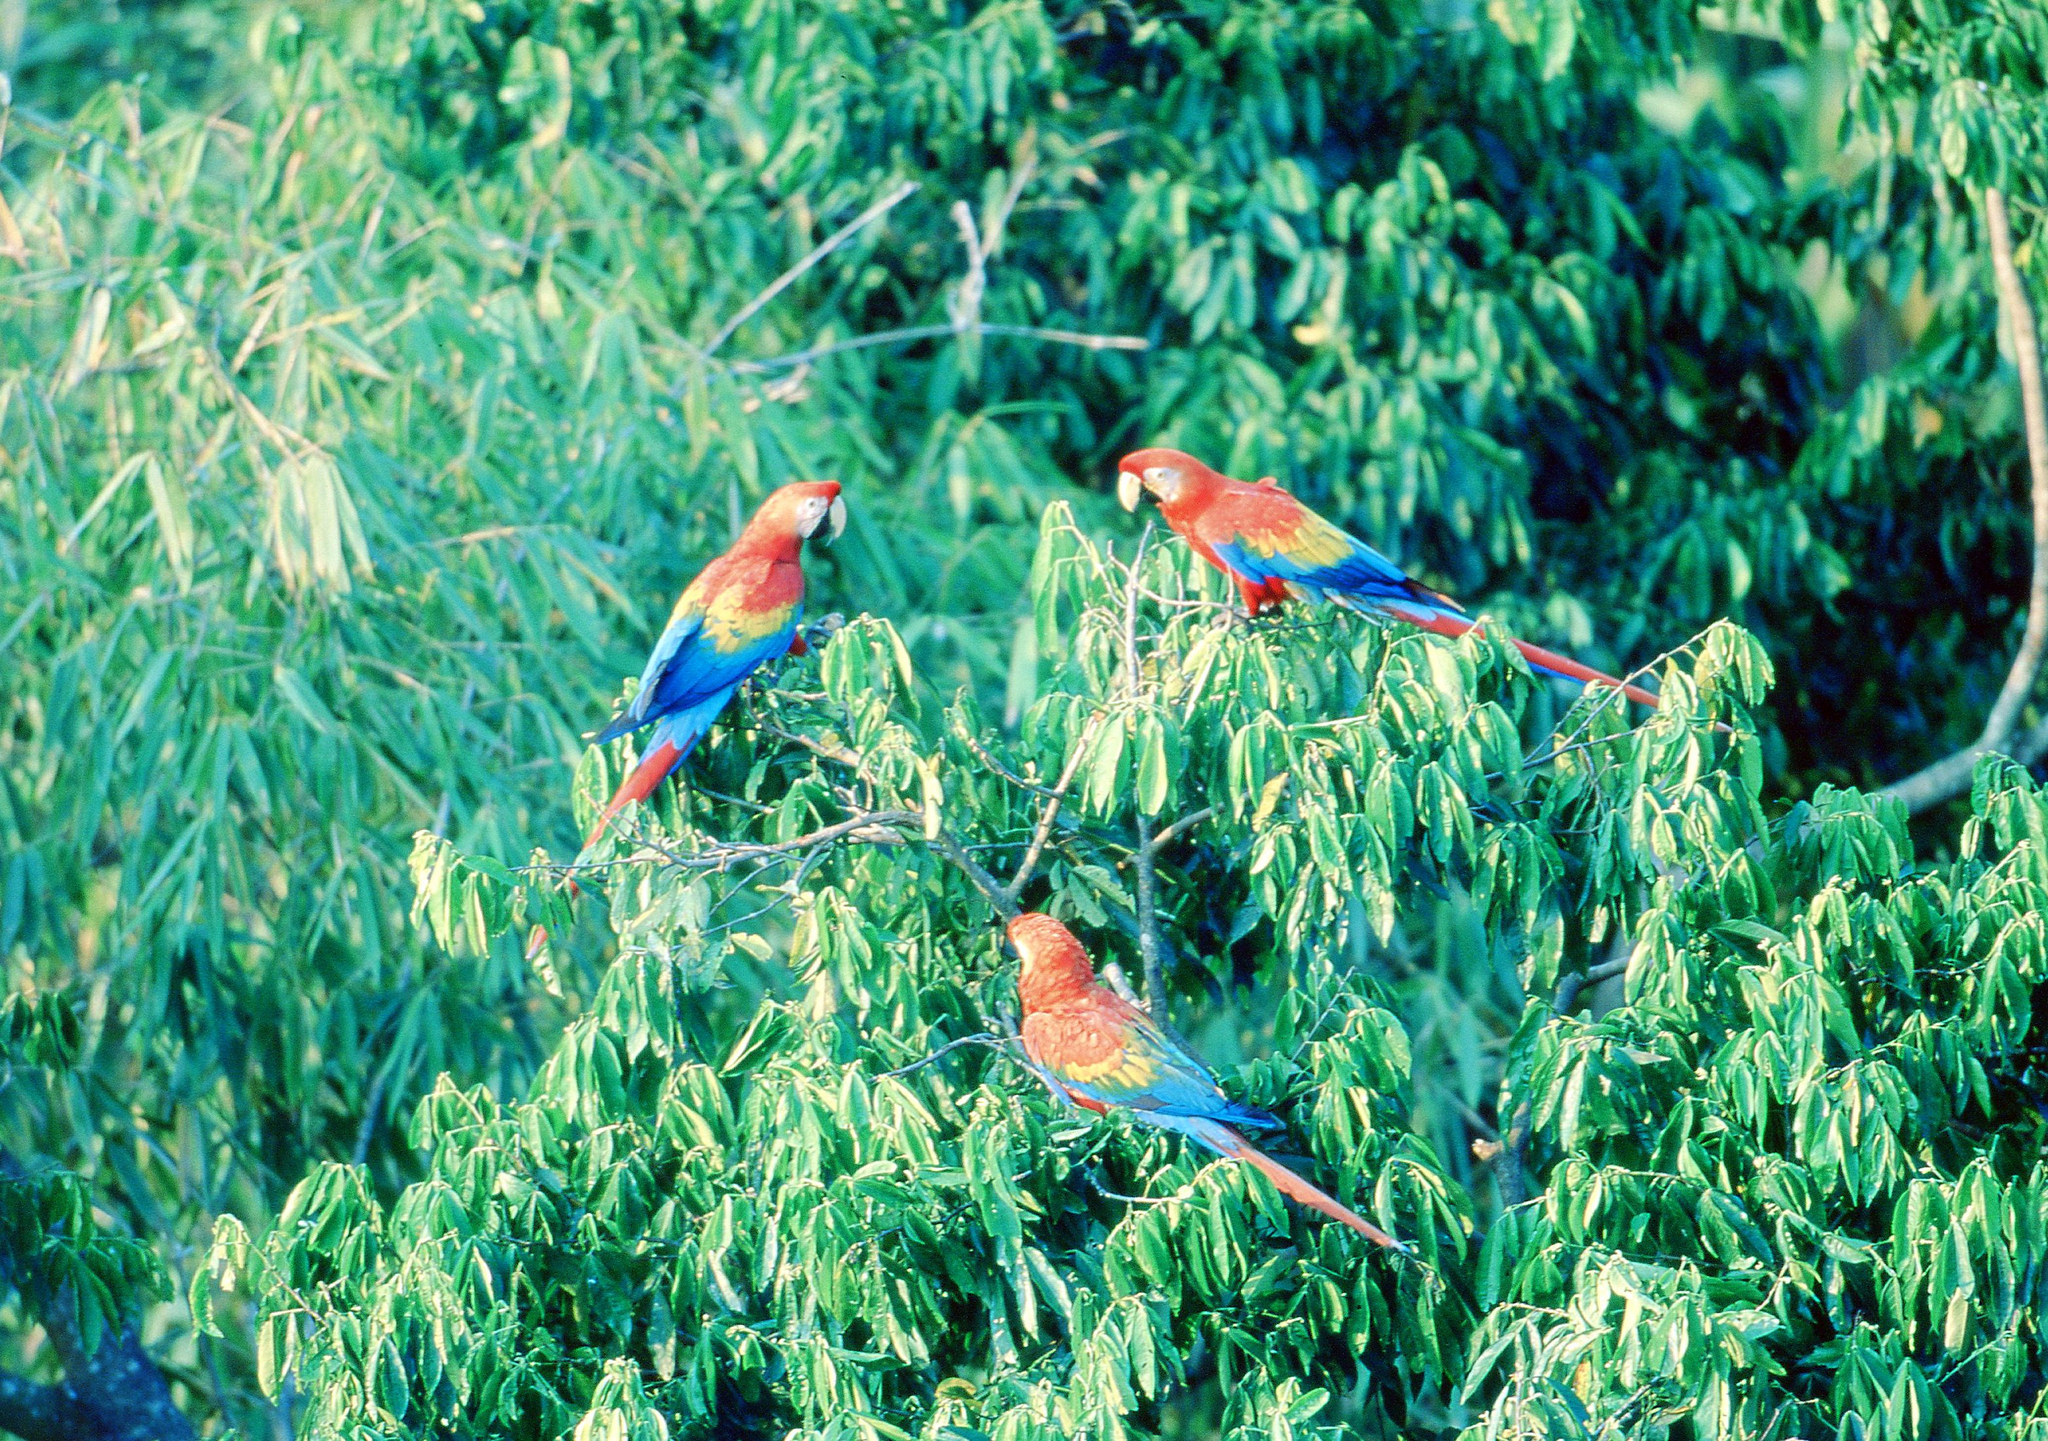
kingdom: Animalia
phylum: Chordata
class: Aves
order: Psittaciformes
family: Psittacidae
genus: Ara
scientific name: Ara macao
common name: Scarlet macaw
